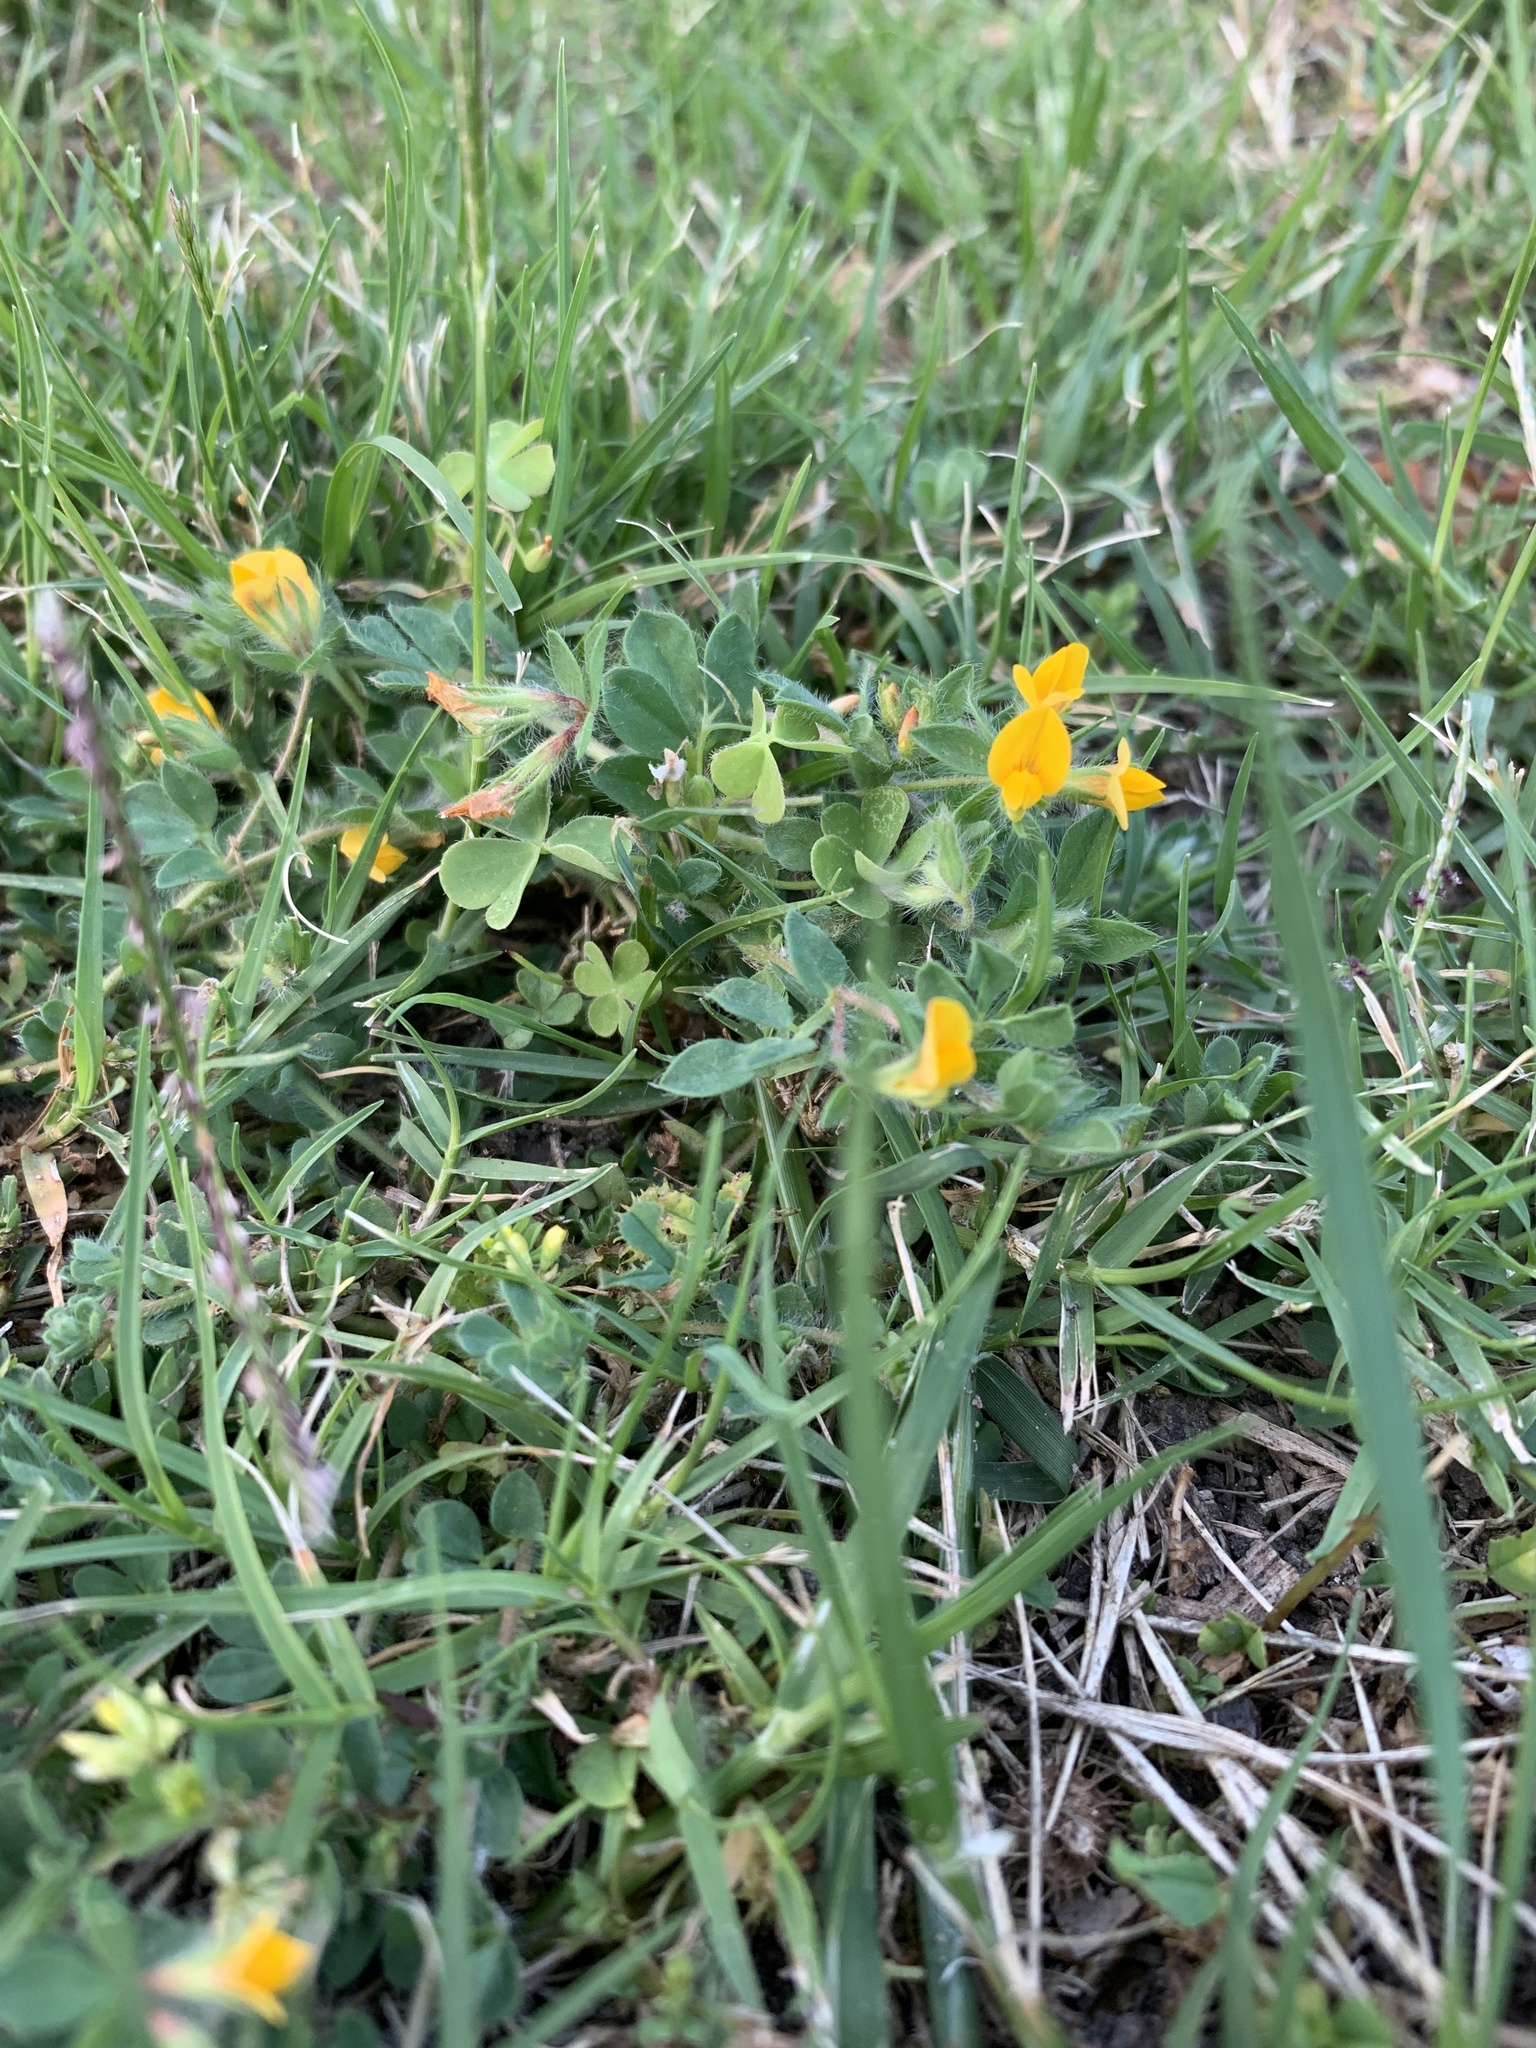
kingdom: Plantae
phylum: Tracheophyta
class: Magnoliopsida
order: Fabales
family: Fabaceae
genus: Lotus
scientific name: Lotus subbiflorus
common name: Hairy bird's-foot trefoil
